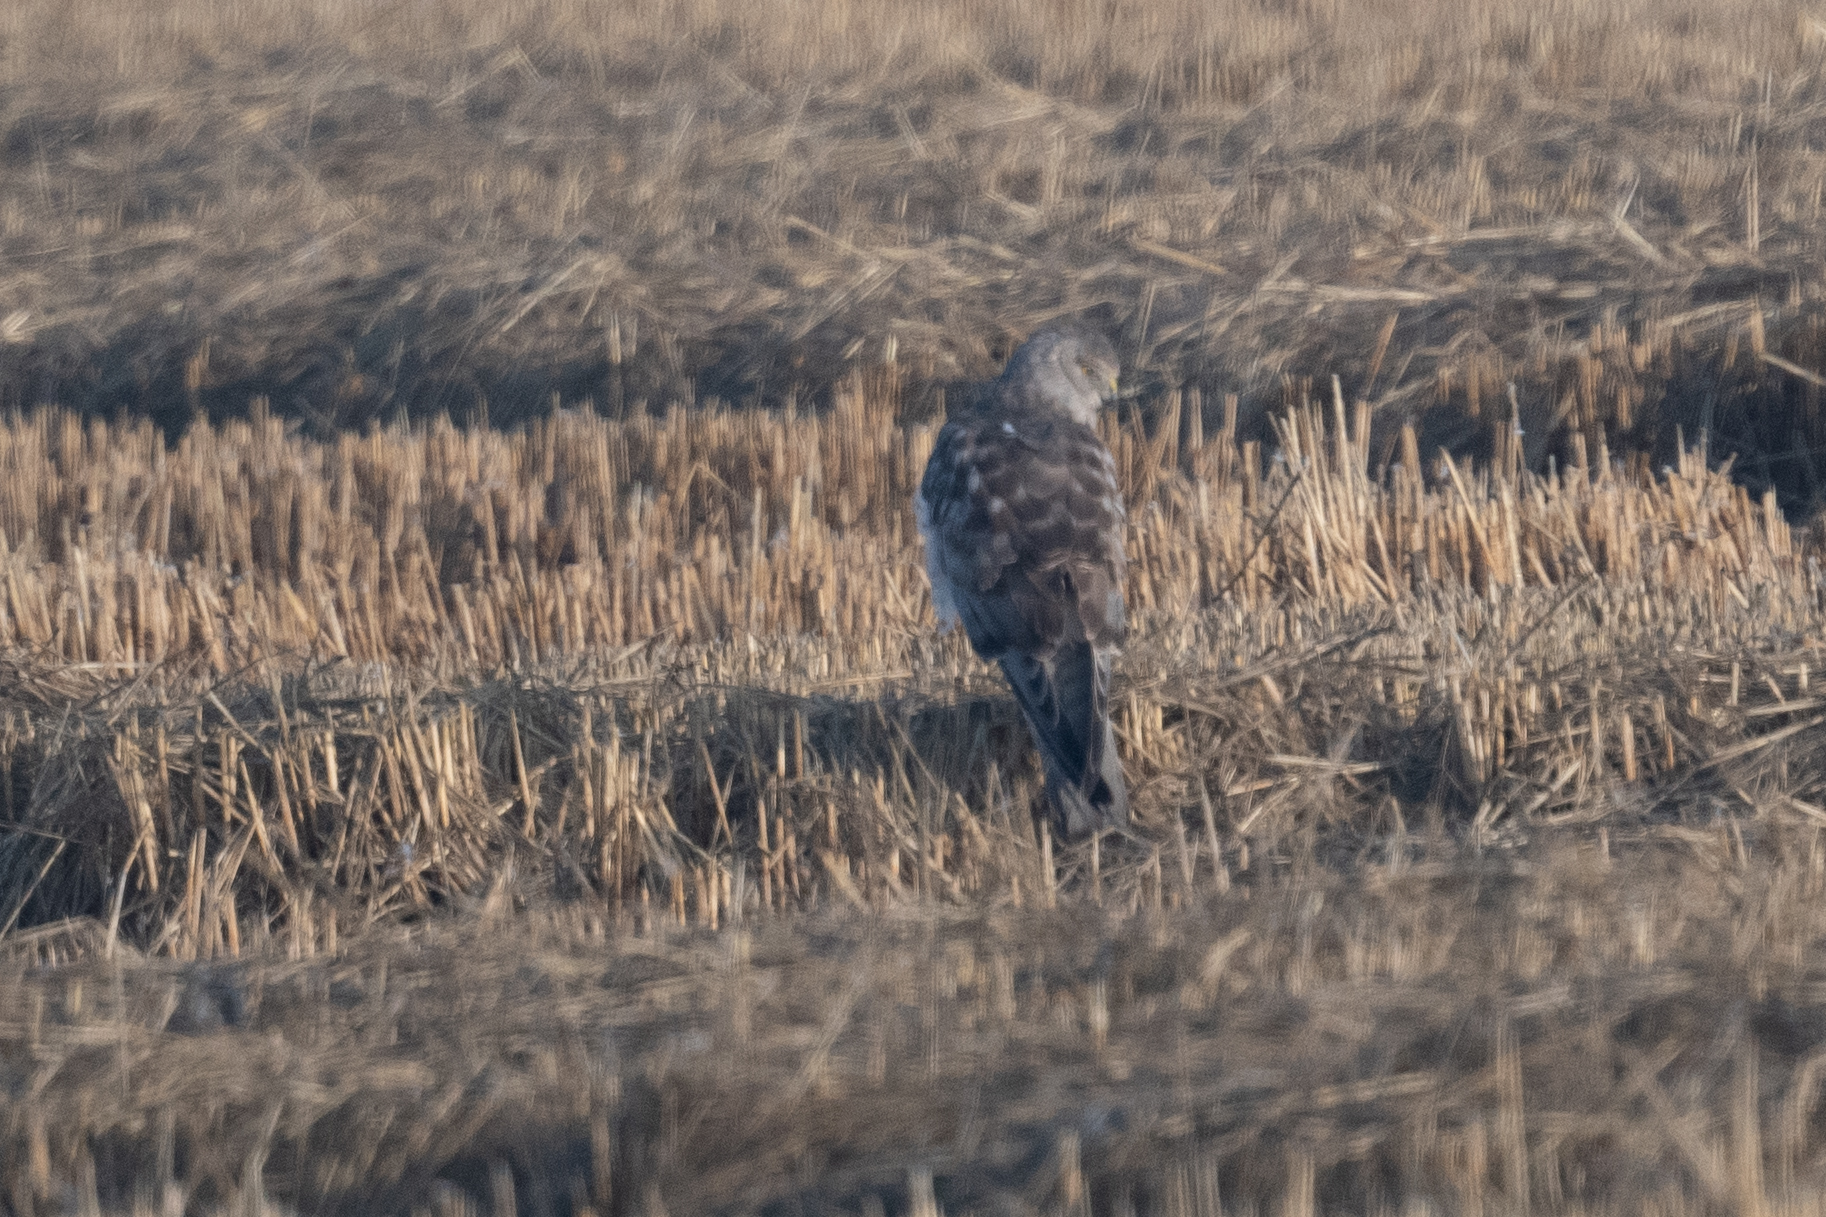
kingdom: Animalia
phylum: Chordata
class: Aves
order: Accipitriformes
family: Accipitridae
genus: Circus
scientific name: Circus cyaneus
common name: Hen harrier
